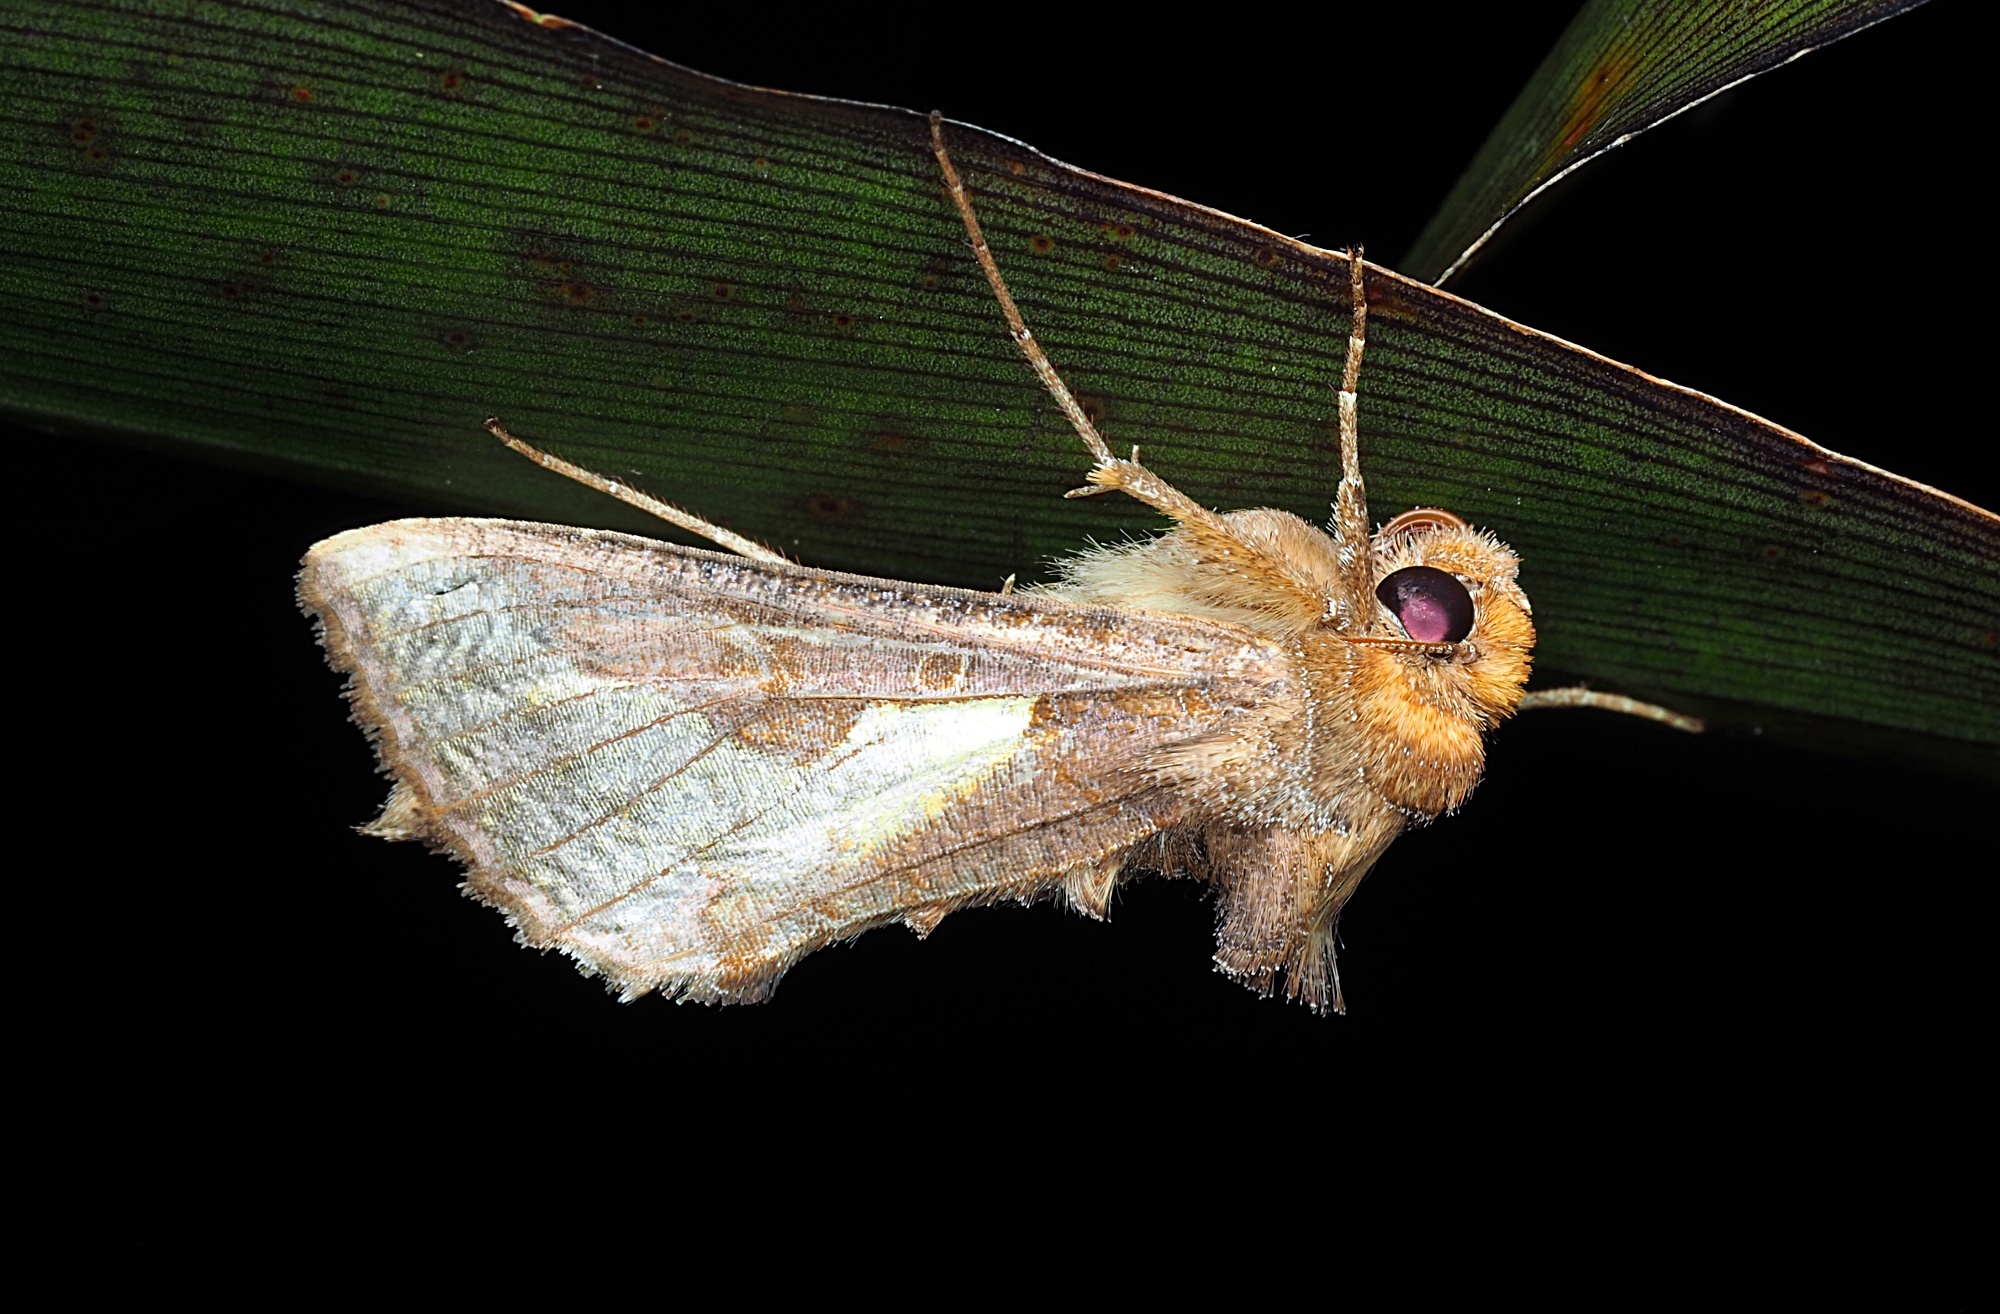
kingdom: Animalia
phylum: Arthropoda
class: Insecta
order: Lepidoptera
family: Noctuidae
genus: Thysanoplusia
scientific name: Thysanoplusia orichalcea
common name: Slender burnished brass, golden plusia
